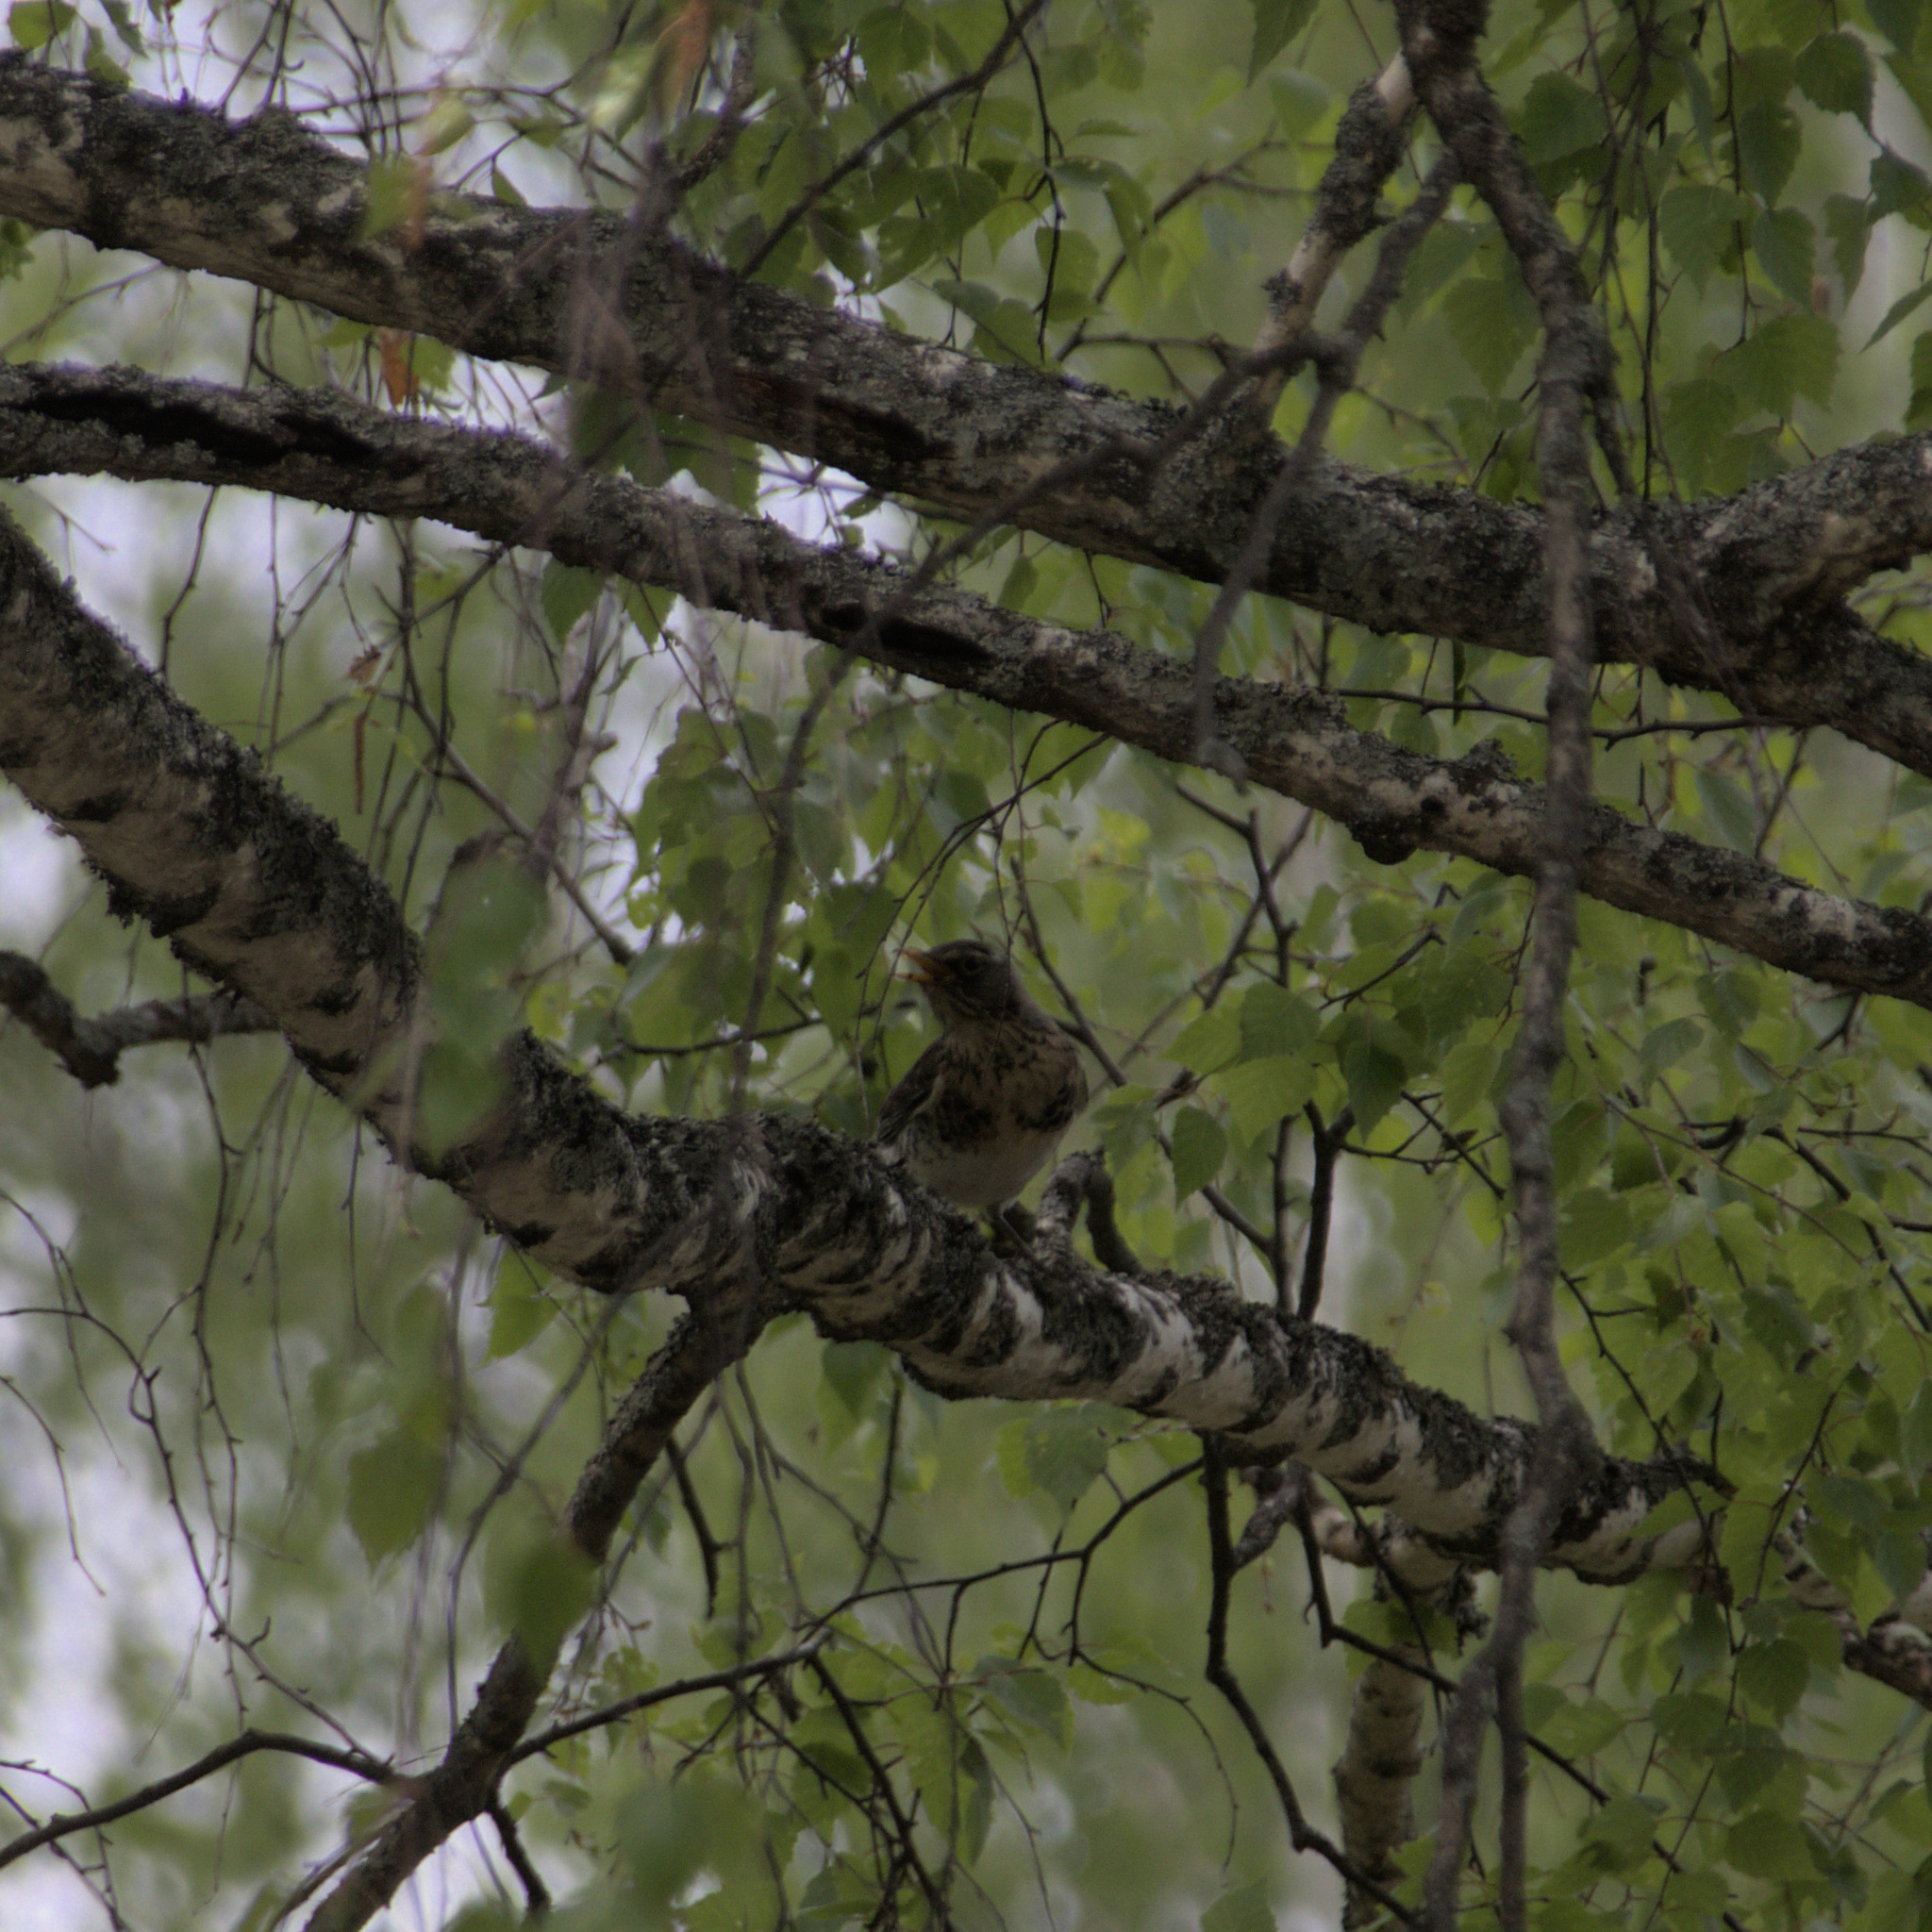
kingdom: Animalia
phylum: Chordata
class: Aves
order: Passeriformes
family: Turdidae
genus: Turdus
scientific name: Turdus pilaris
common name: Fieldfare
